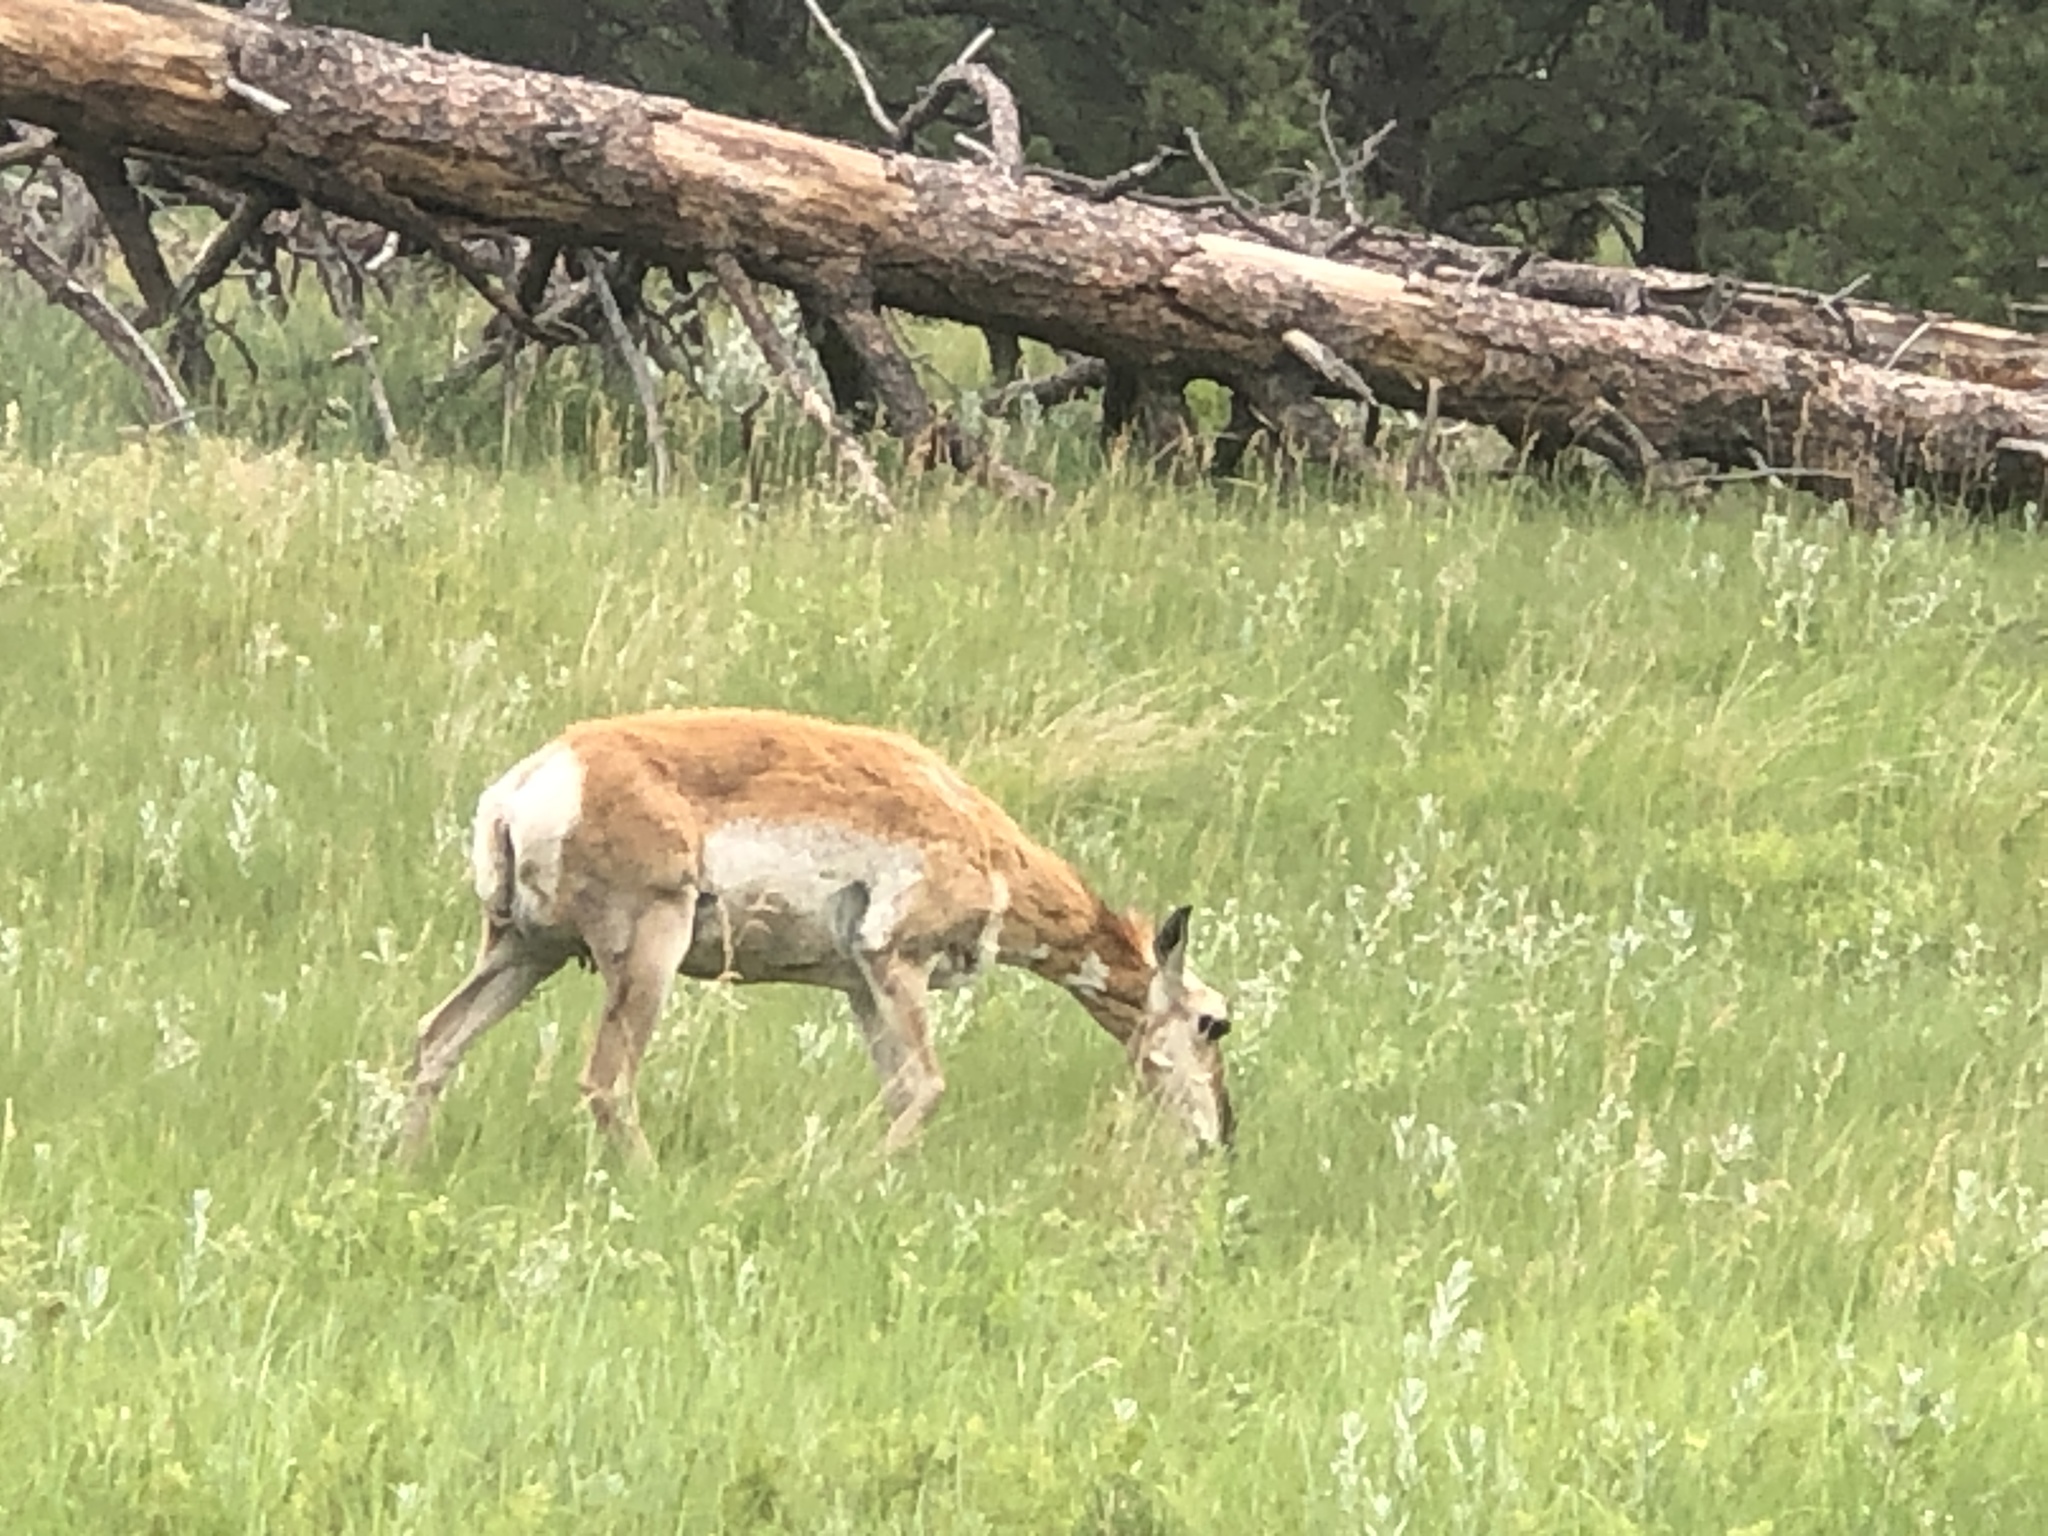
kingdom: Animalia
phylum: Chordata
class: Mammalia
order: Artiodactyla
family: Antilocapridae
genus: Antilocapra
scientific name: Antilocapra americana
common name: Pronghorn
